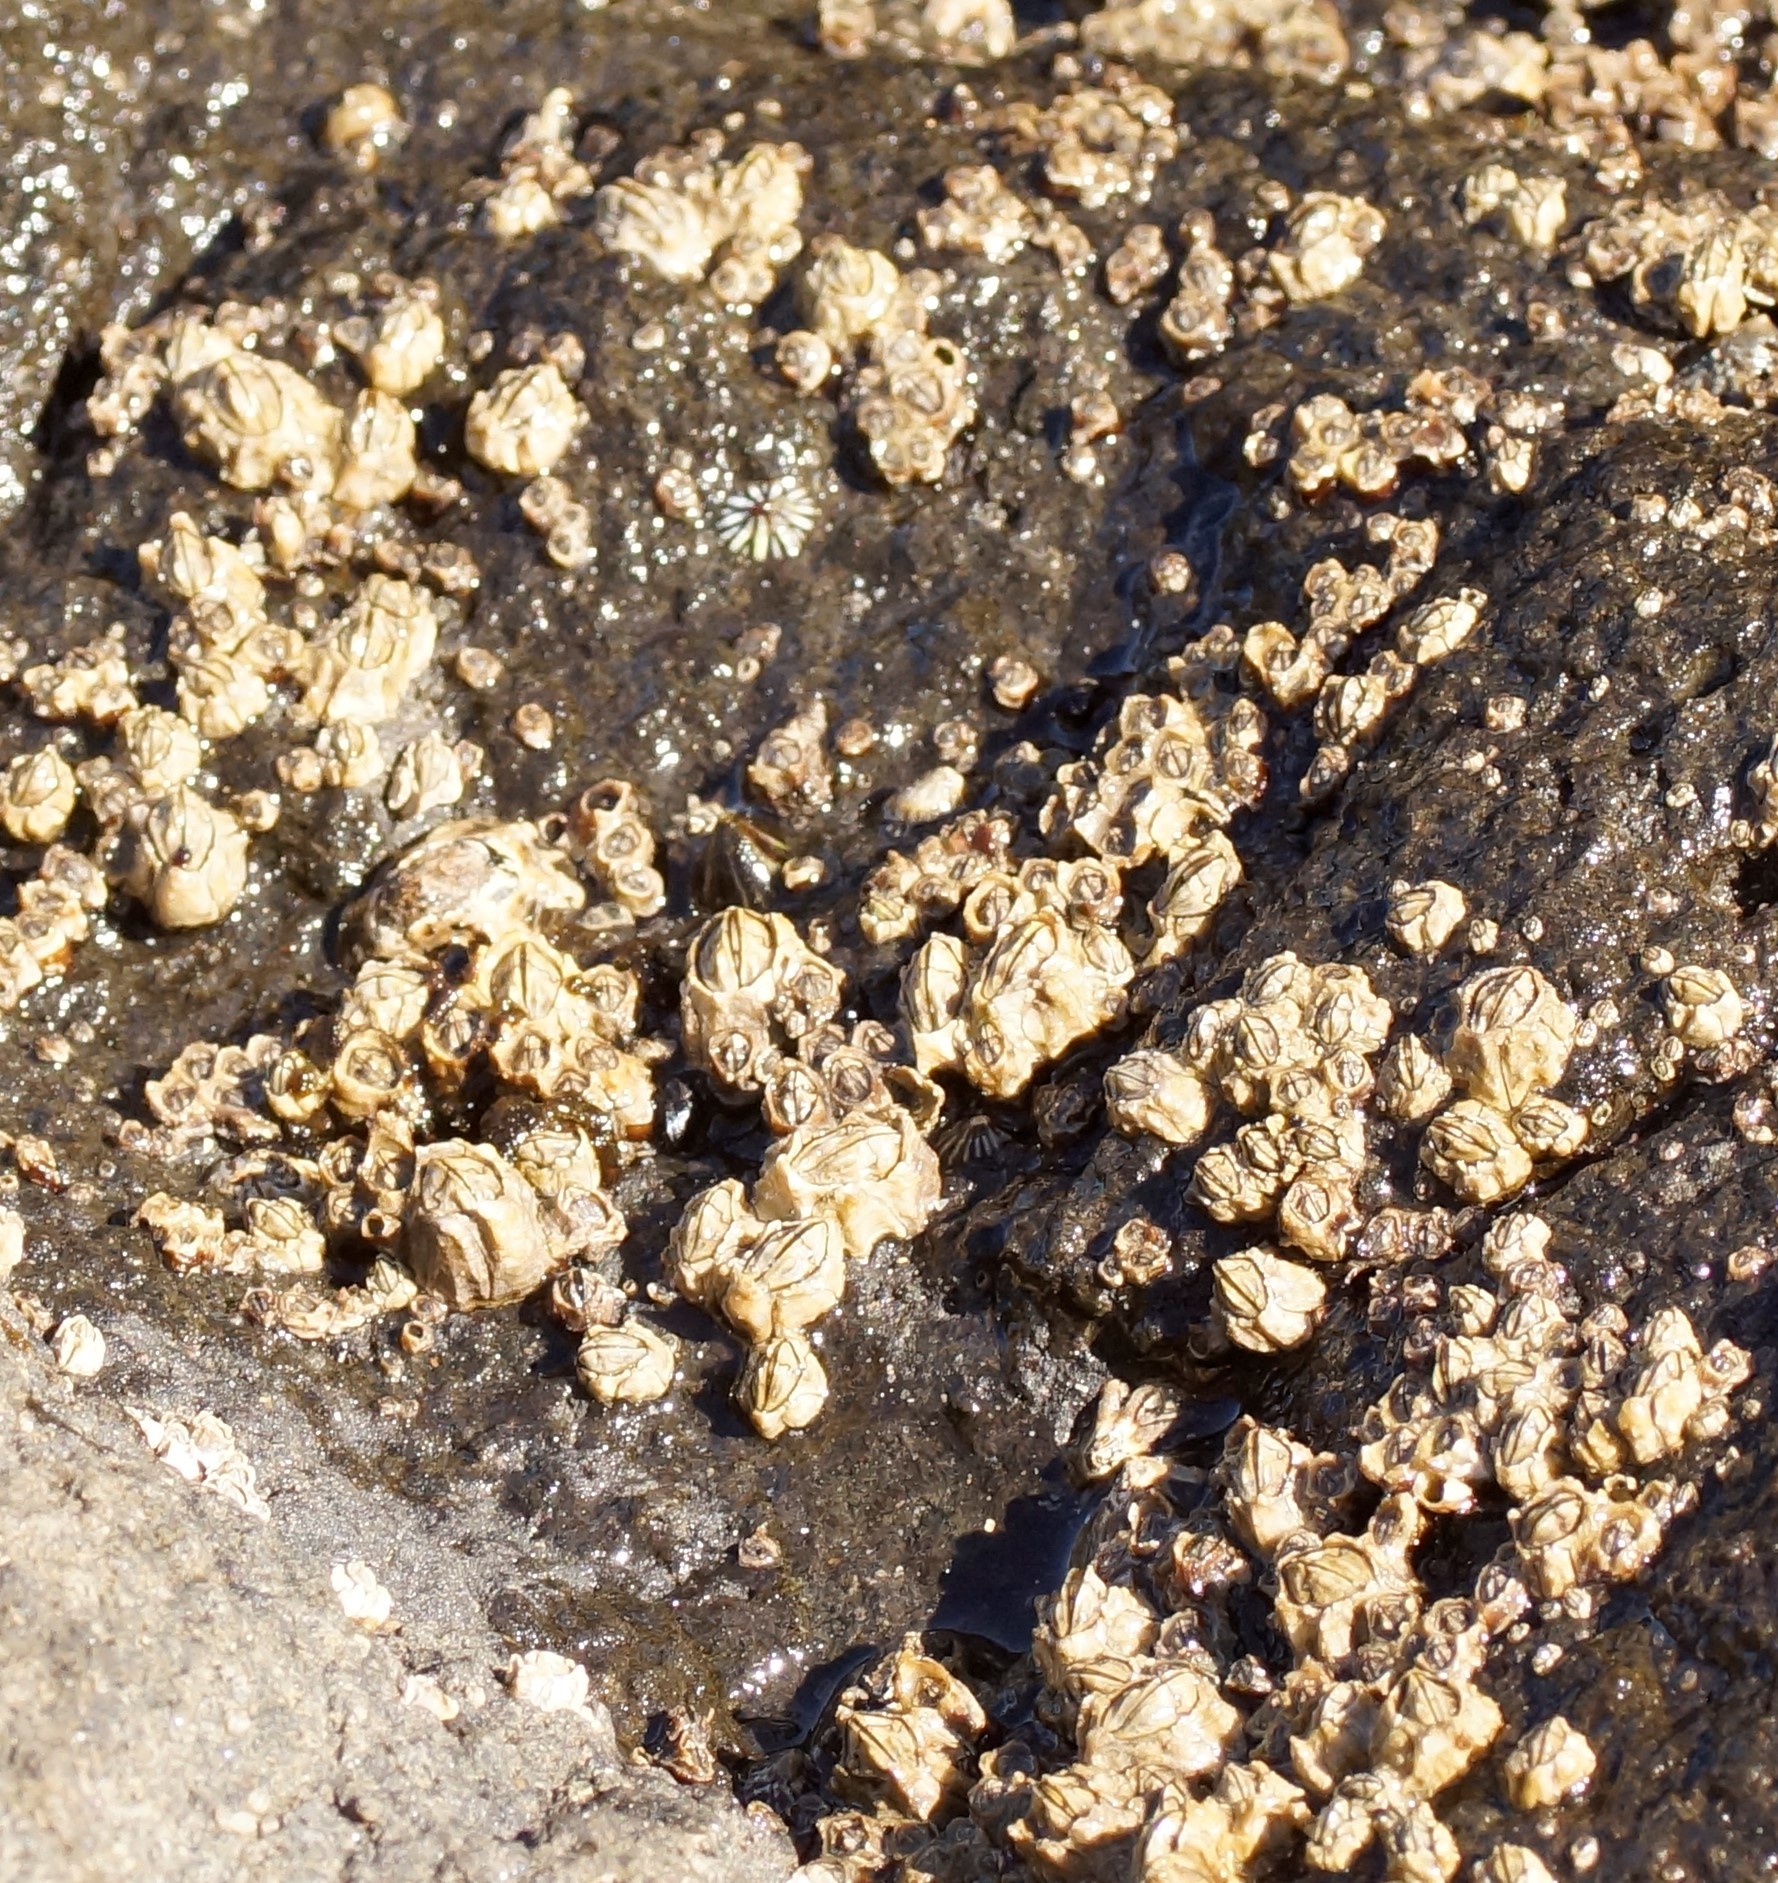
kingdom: Animalia
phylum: Arthropoda
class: Maxillopoda
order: Sessilia
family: Chthamalidae
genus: Chthamalus
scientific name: Chthamalus antennatus
